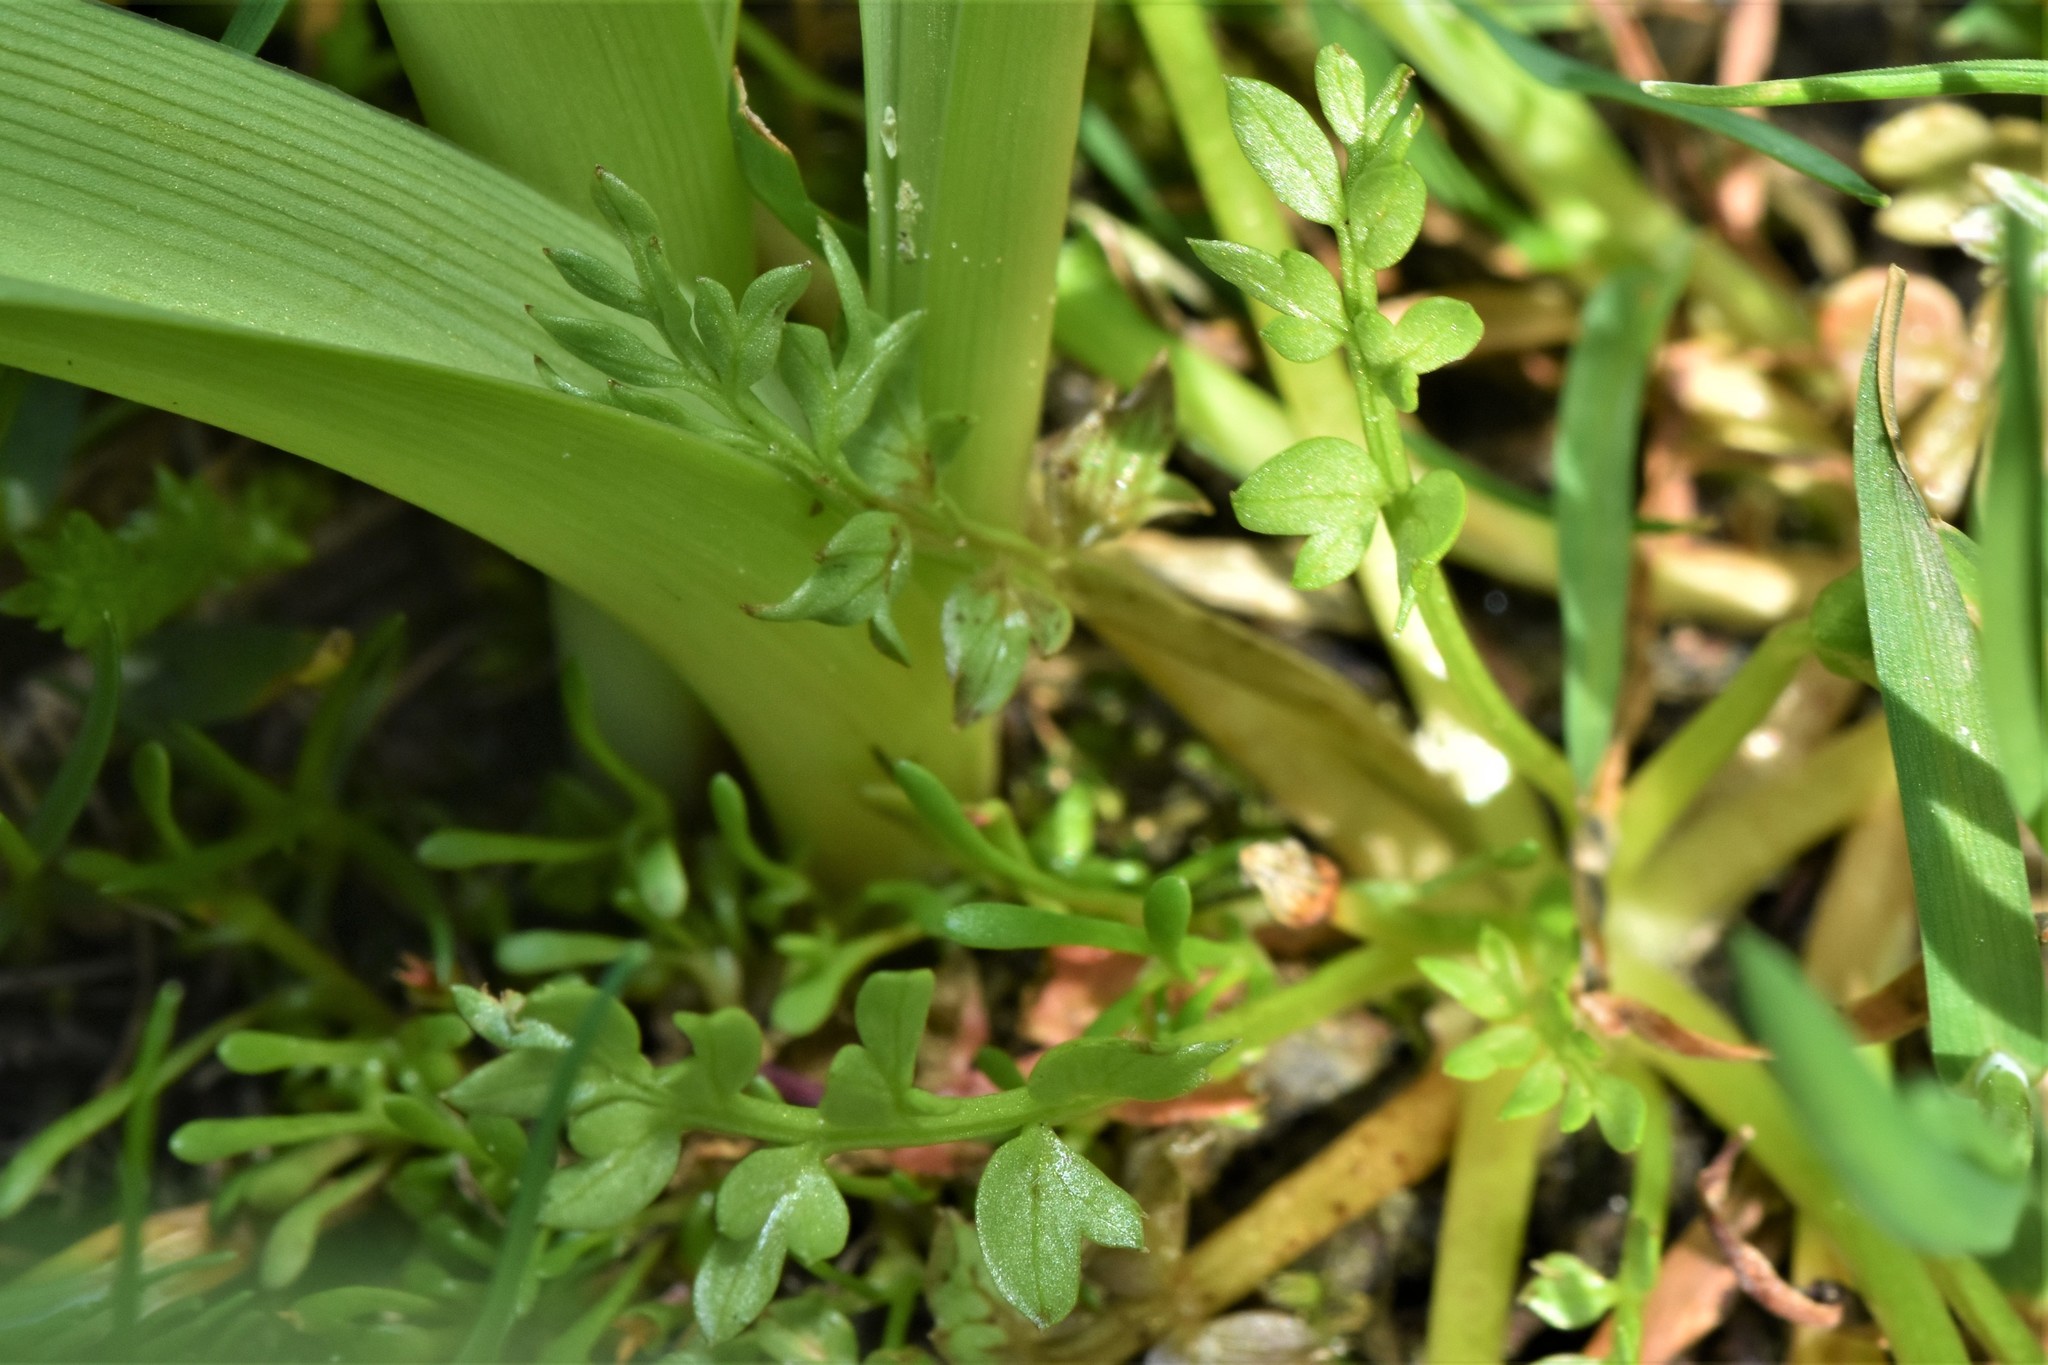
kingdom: Plantae
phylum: Tracheophyta
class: Magnoliopsida
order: Brassicales
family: Limnanthaceae
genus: Limnanthes
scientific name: Limnanthes macounii
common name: Macoun's meadowfoam
